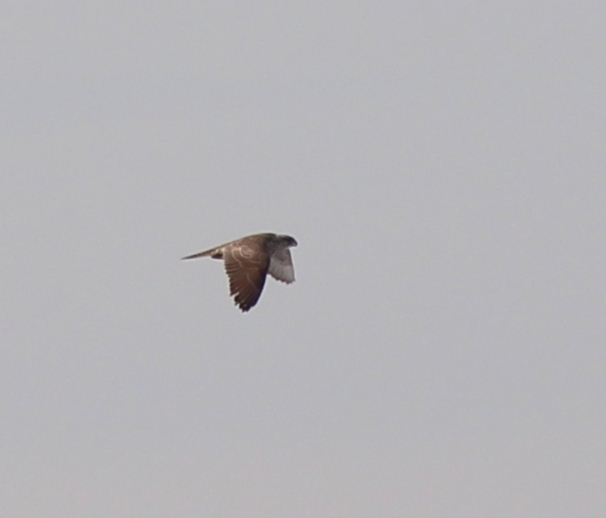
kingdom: Animalia
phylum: Chordata
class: Aves
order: Falconiformes
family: Falconidae
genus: Falco
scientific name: Falco rusticolus
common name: Gyrfalcon
